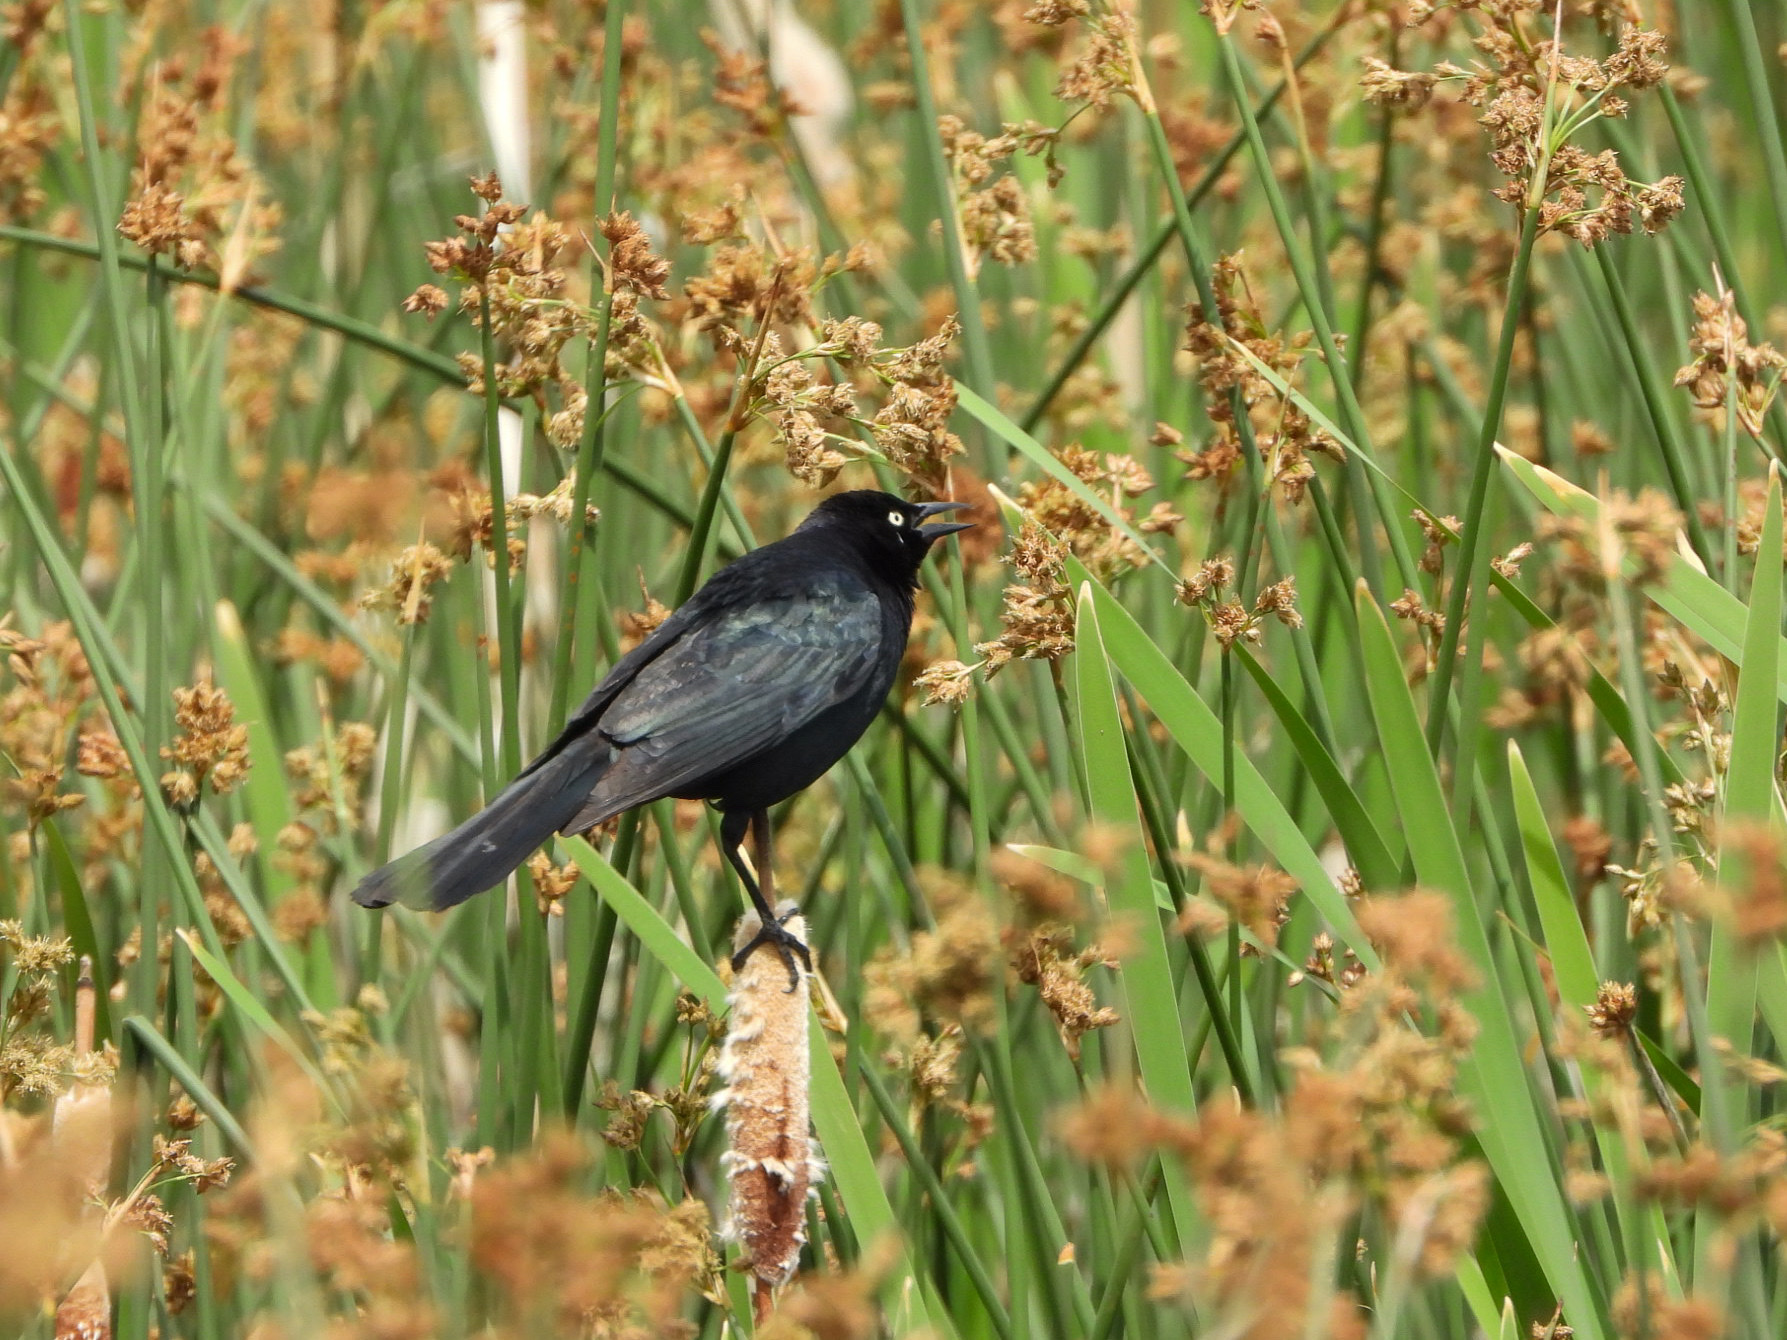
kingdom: Animalia
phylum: Chordata
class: Aves
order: Passeriformes
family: Icteridae
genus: Euphagus
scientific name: Euphagus cyanocephalus
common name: Brewer's blackbird
